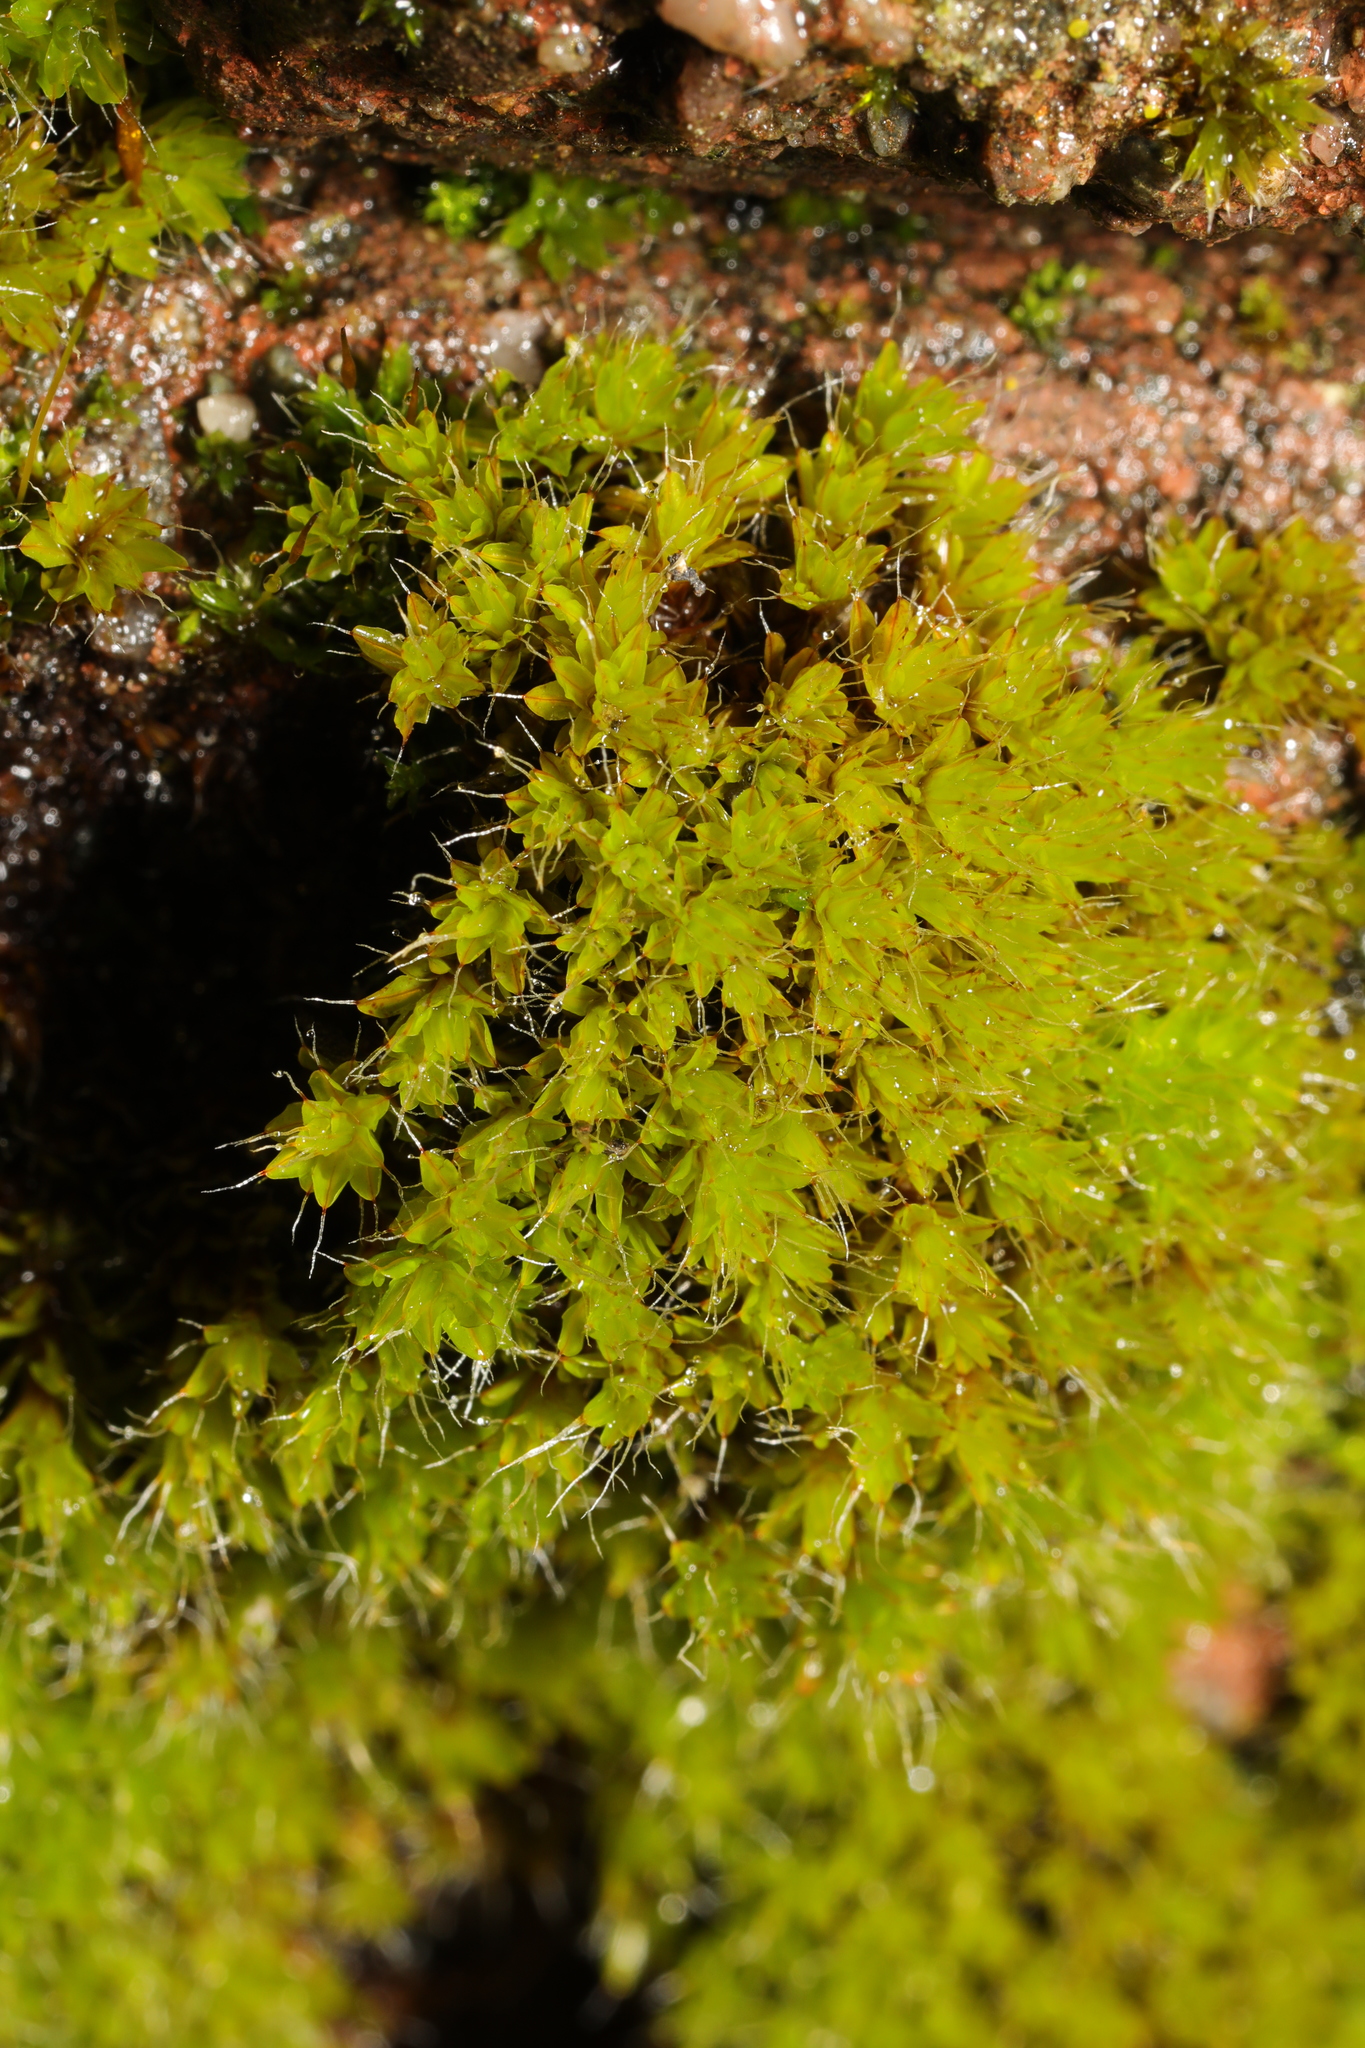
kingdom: Plantae
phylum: Bryophyta
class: Bryopsida
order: Pottiales
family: Pottiaceae
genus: Syntrichia
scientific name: Syntrichia montana
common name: Intermediate screw-moss
